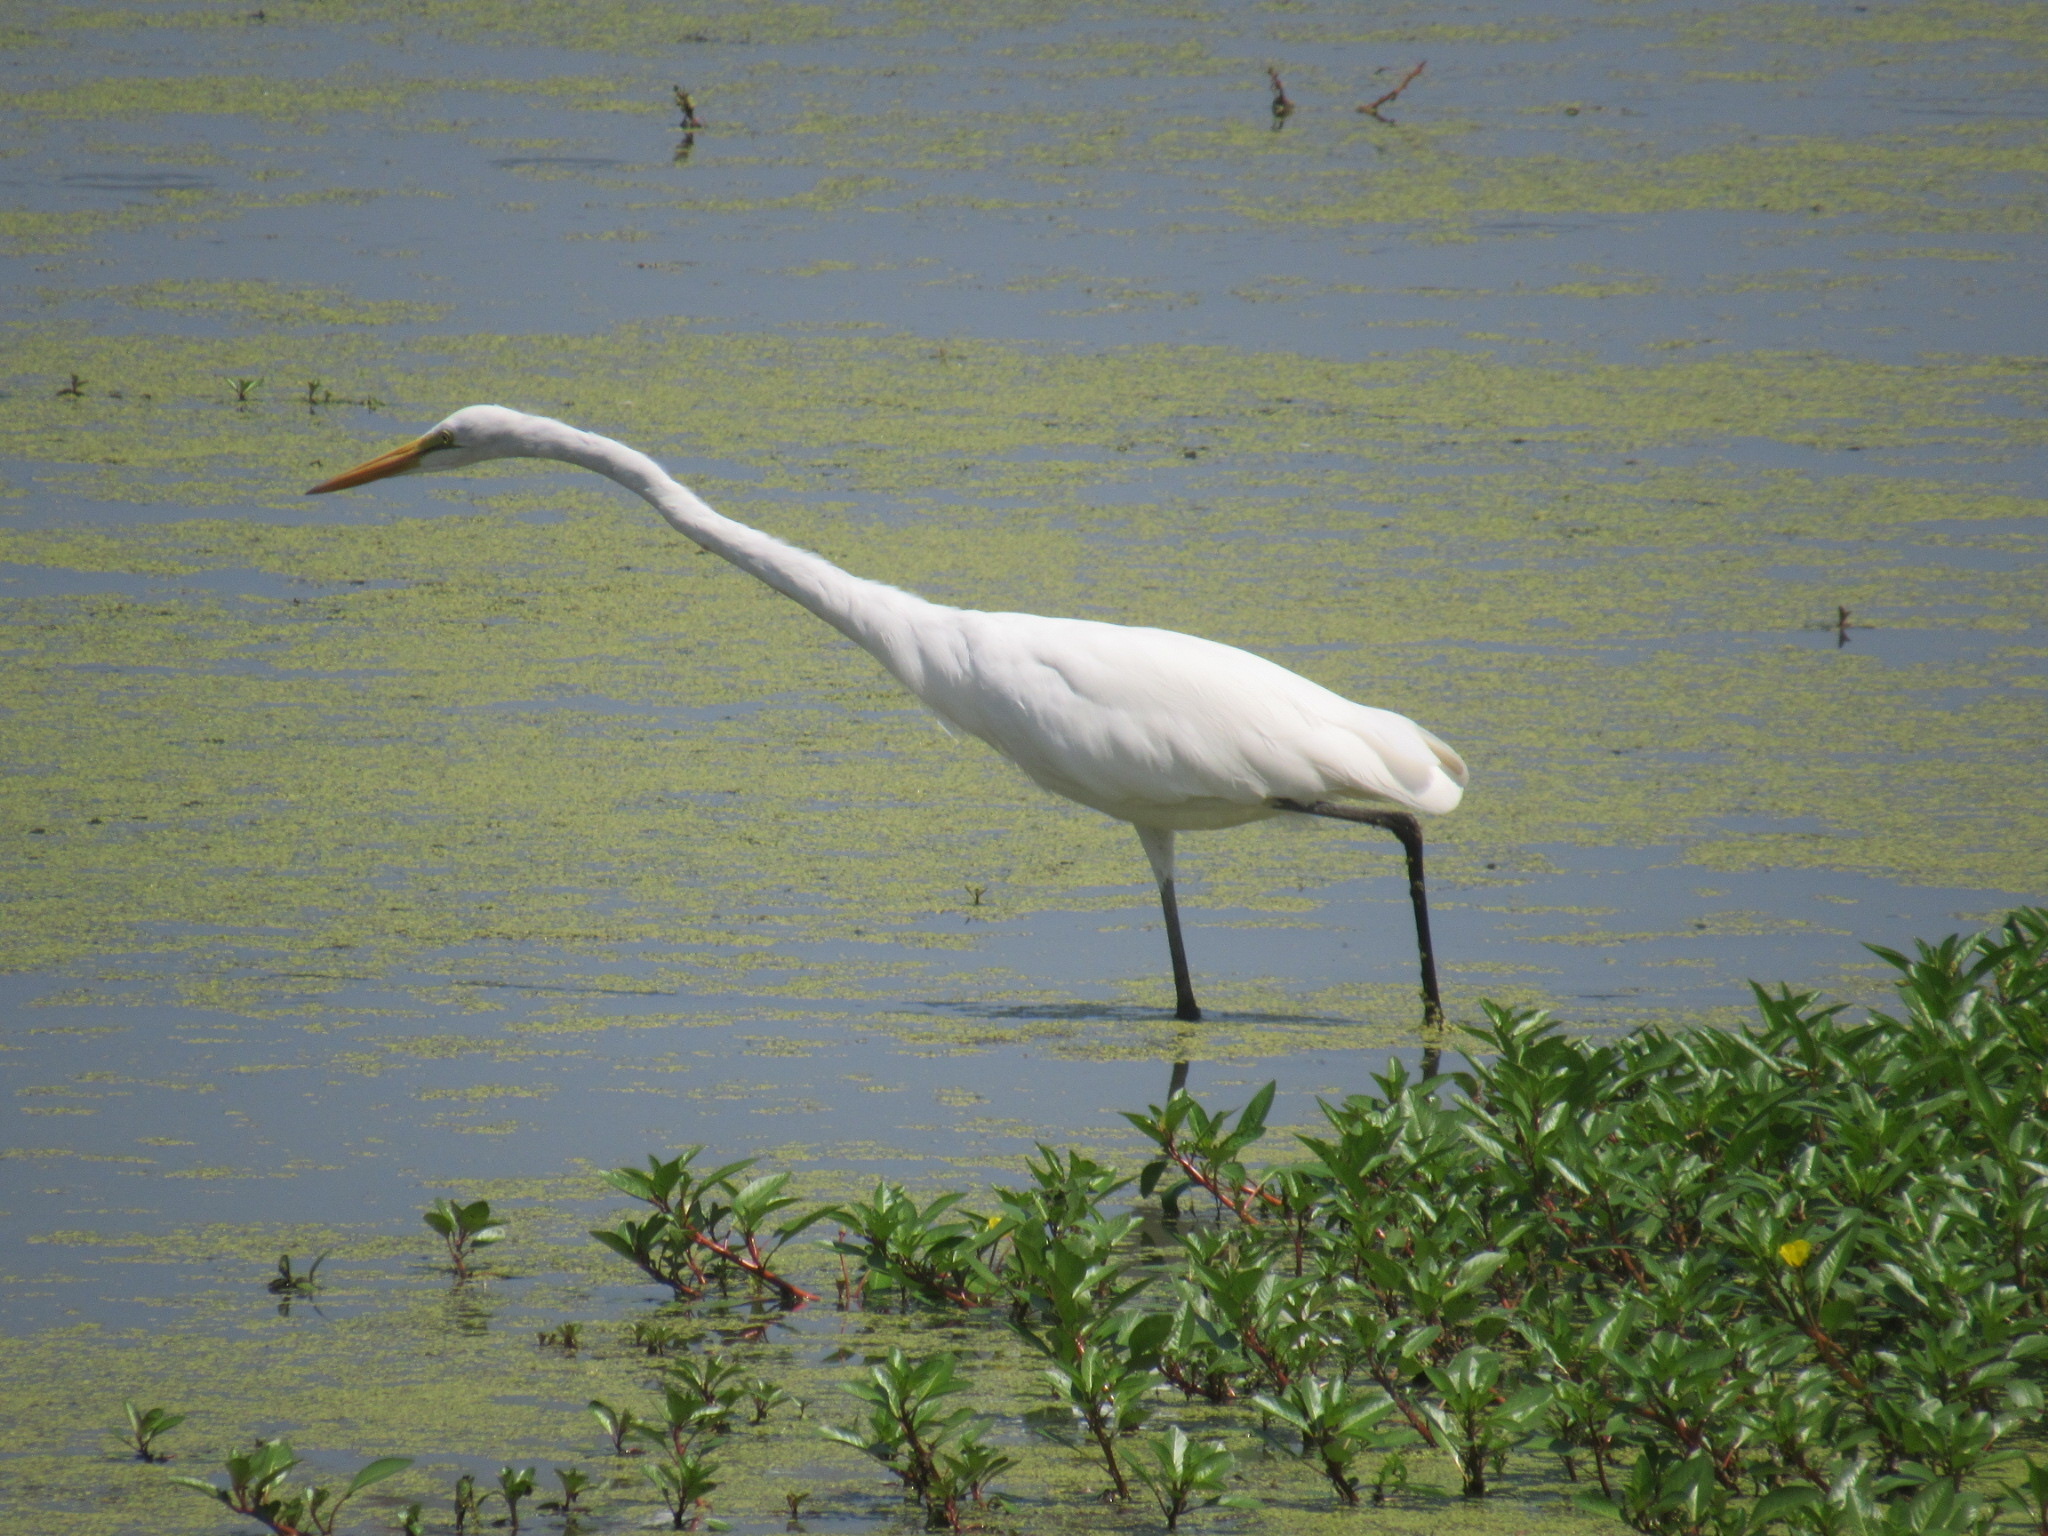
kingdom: Animalia
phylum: Chordata
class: Aves
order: Pelecaniformes
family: Ardeidae
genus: Ardea
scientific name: Ardea alba
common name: Great egret
